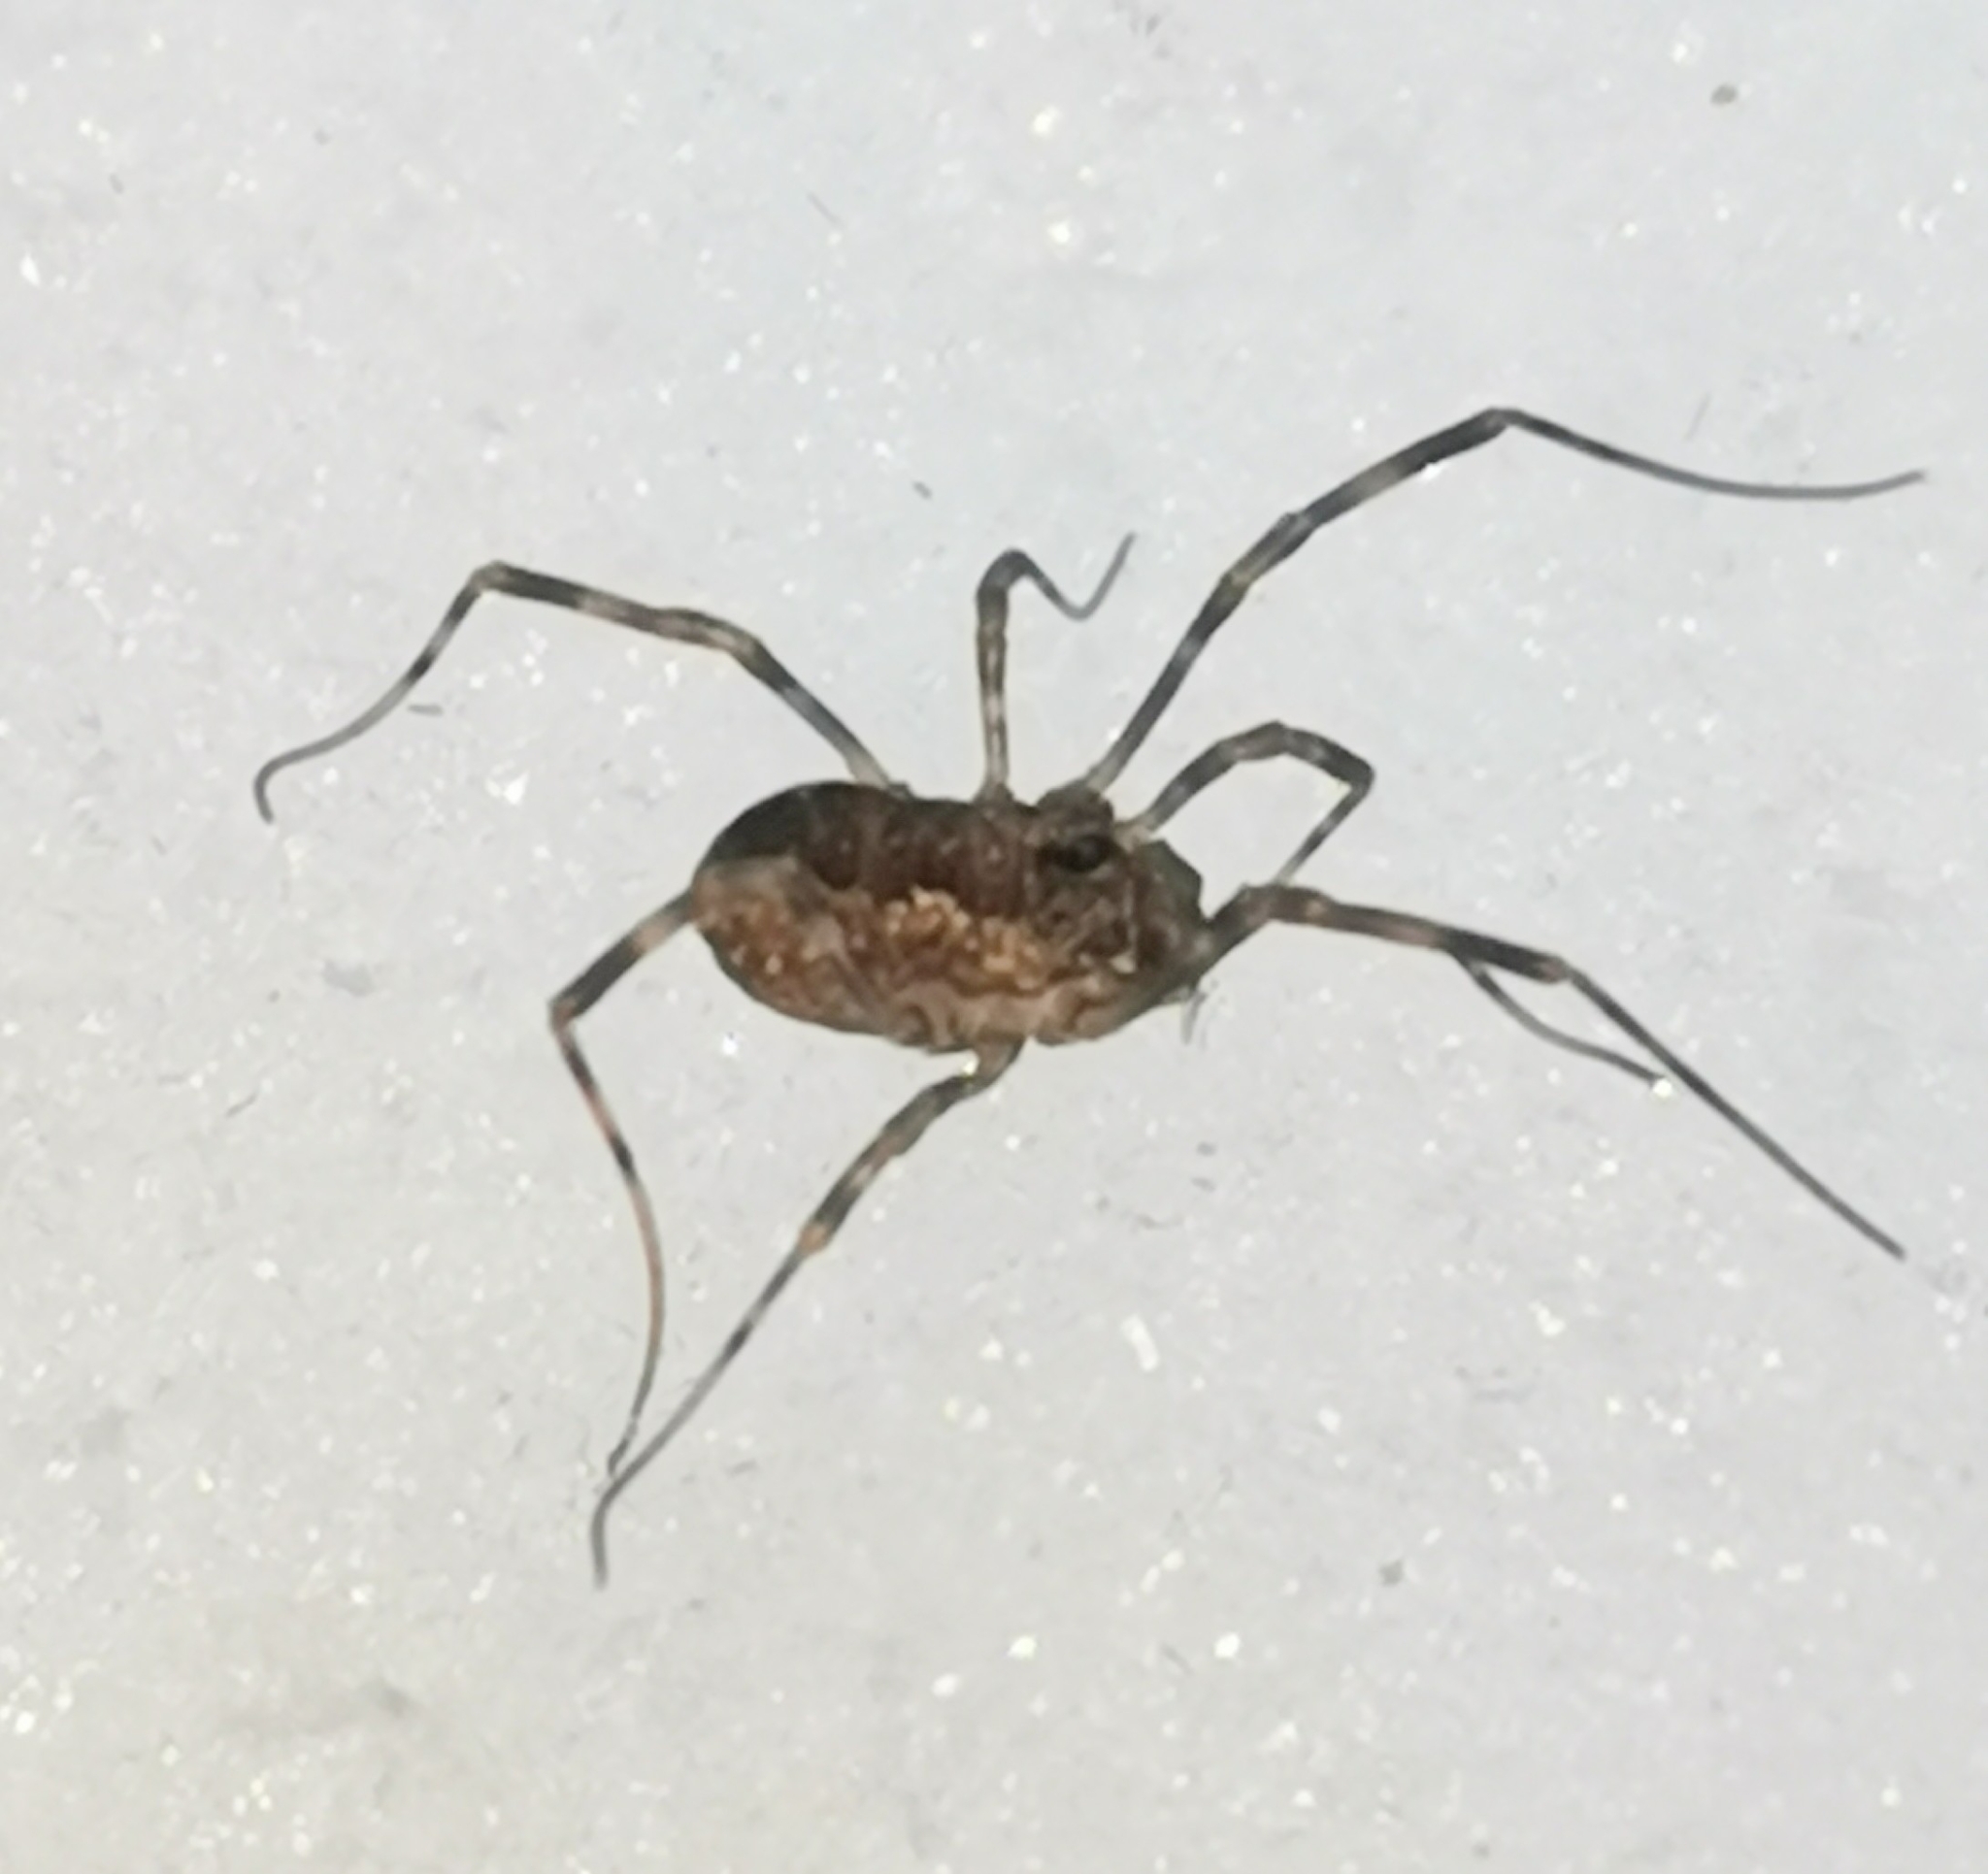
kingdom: Animalia
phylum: Arthropoda
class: Arachnida
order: Opiliones
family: Phalangiidae
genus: Rilaena
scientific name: Rilaena triangularis
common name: Spring harvestman
